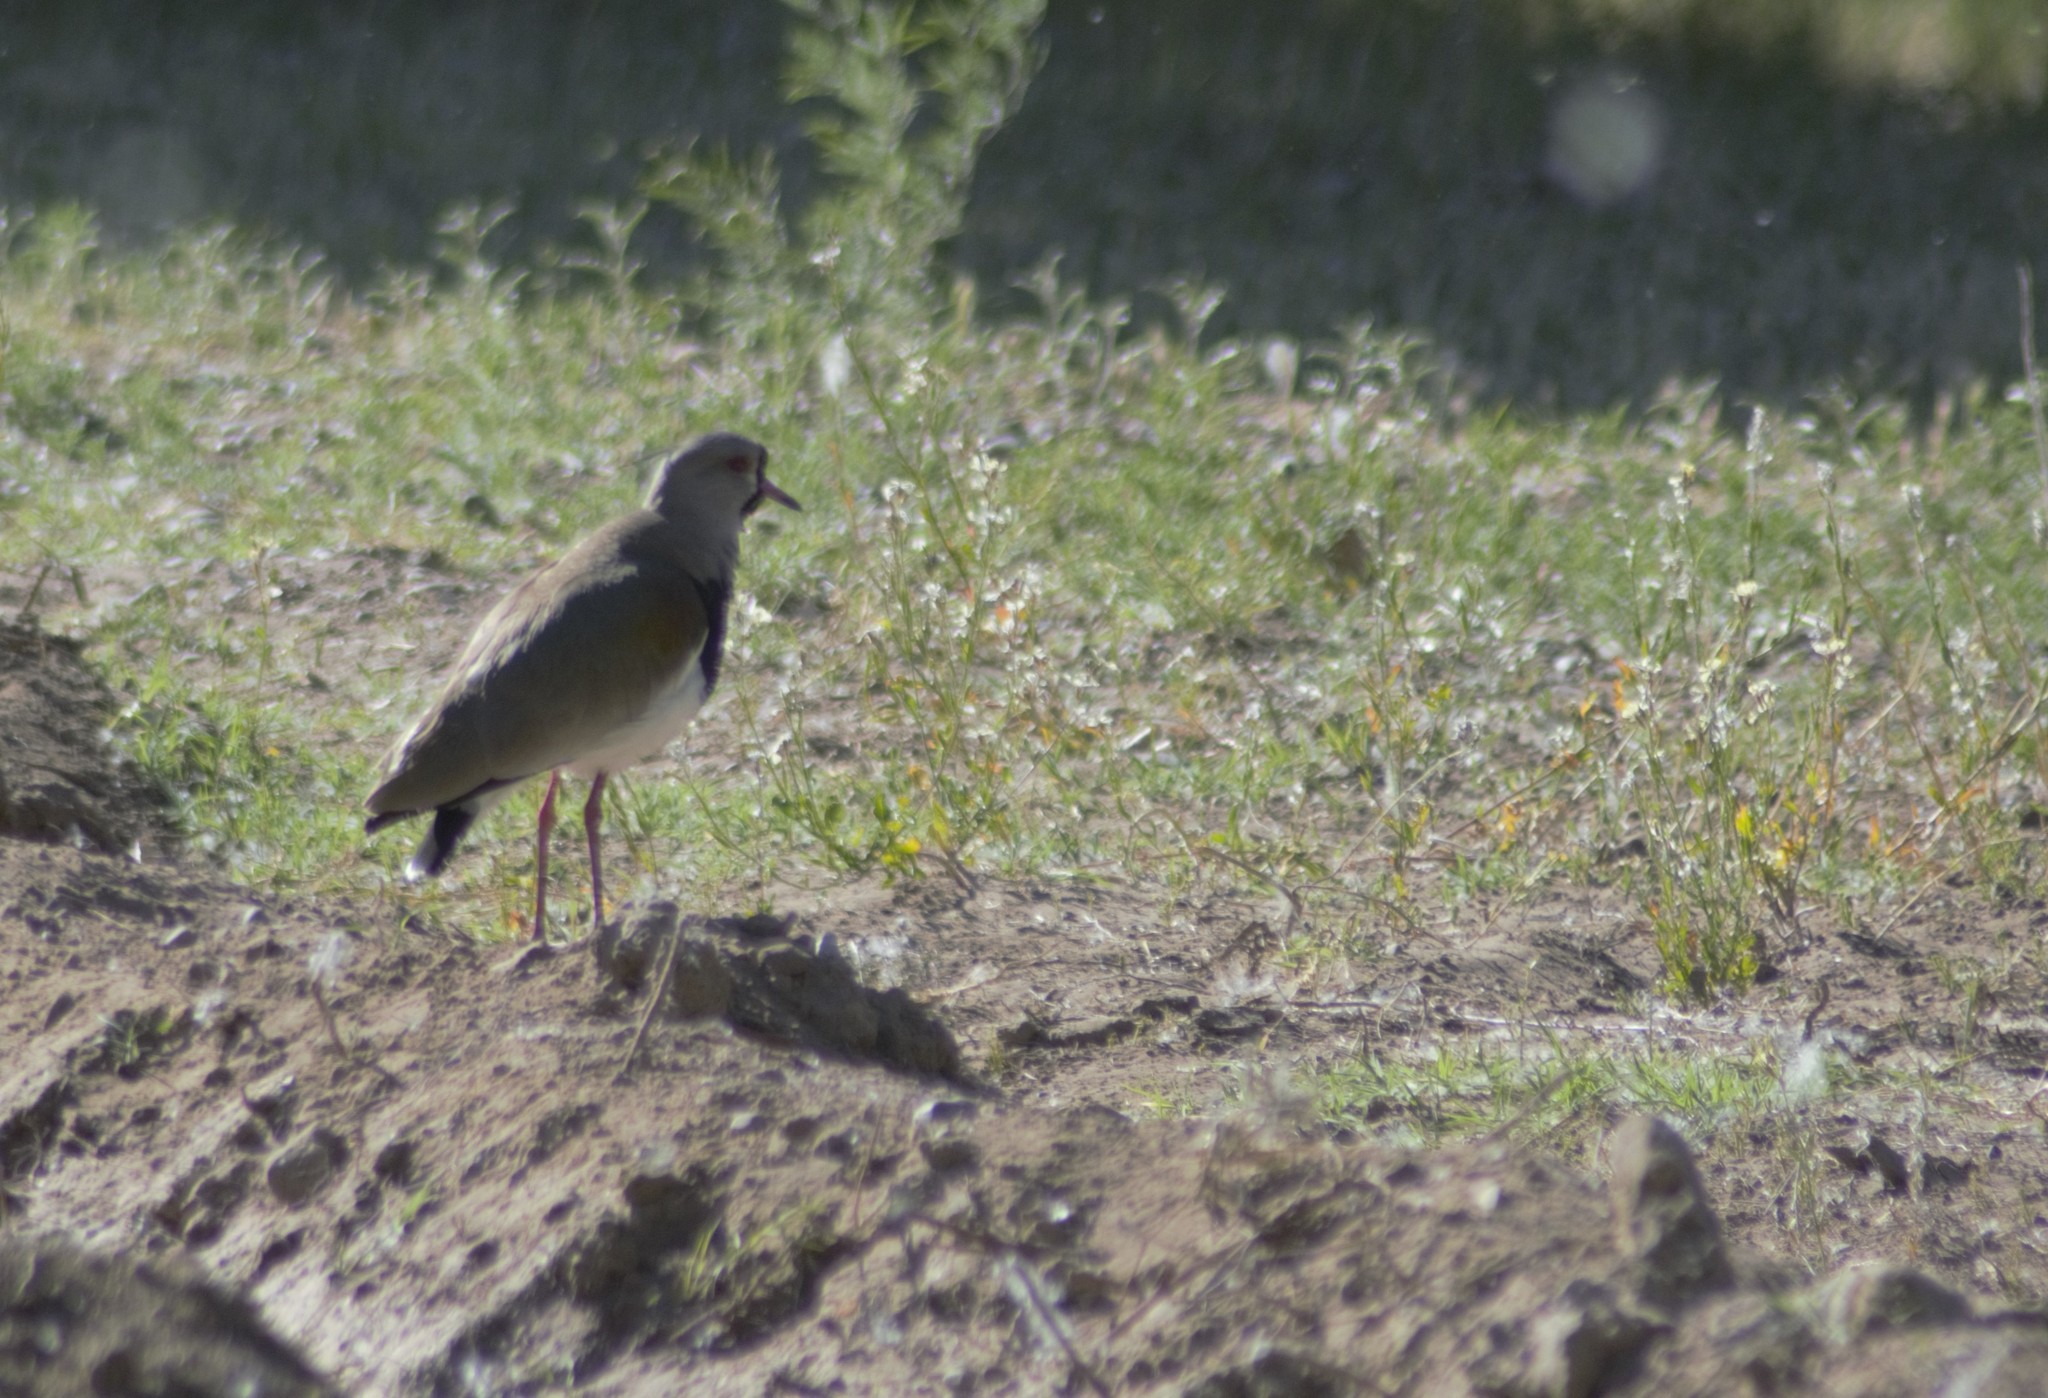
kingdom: Animalia
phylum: Chordata
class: Aves
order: Charadriiformes
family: Charadriidae
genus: Vanellus
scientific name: Vanellus chilensis
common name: Southern lapwing
